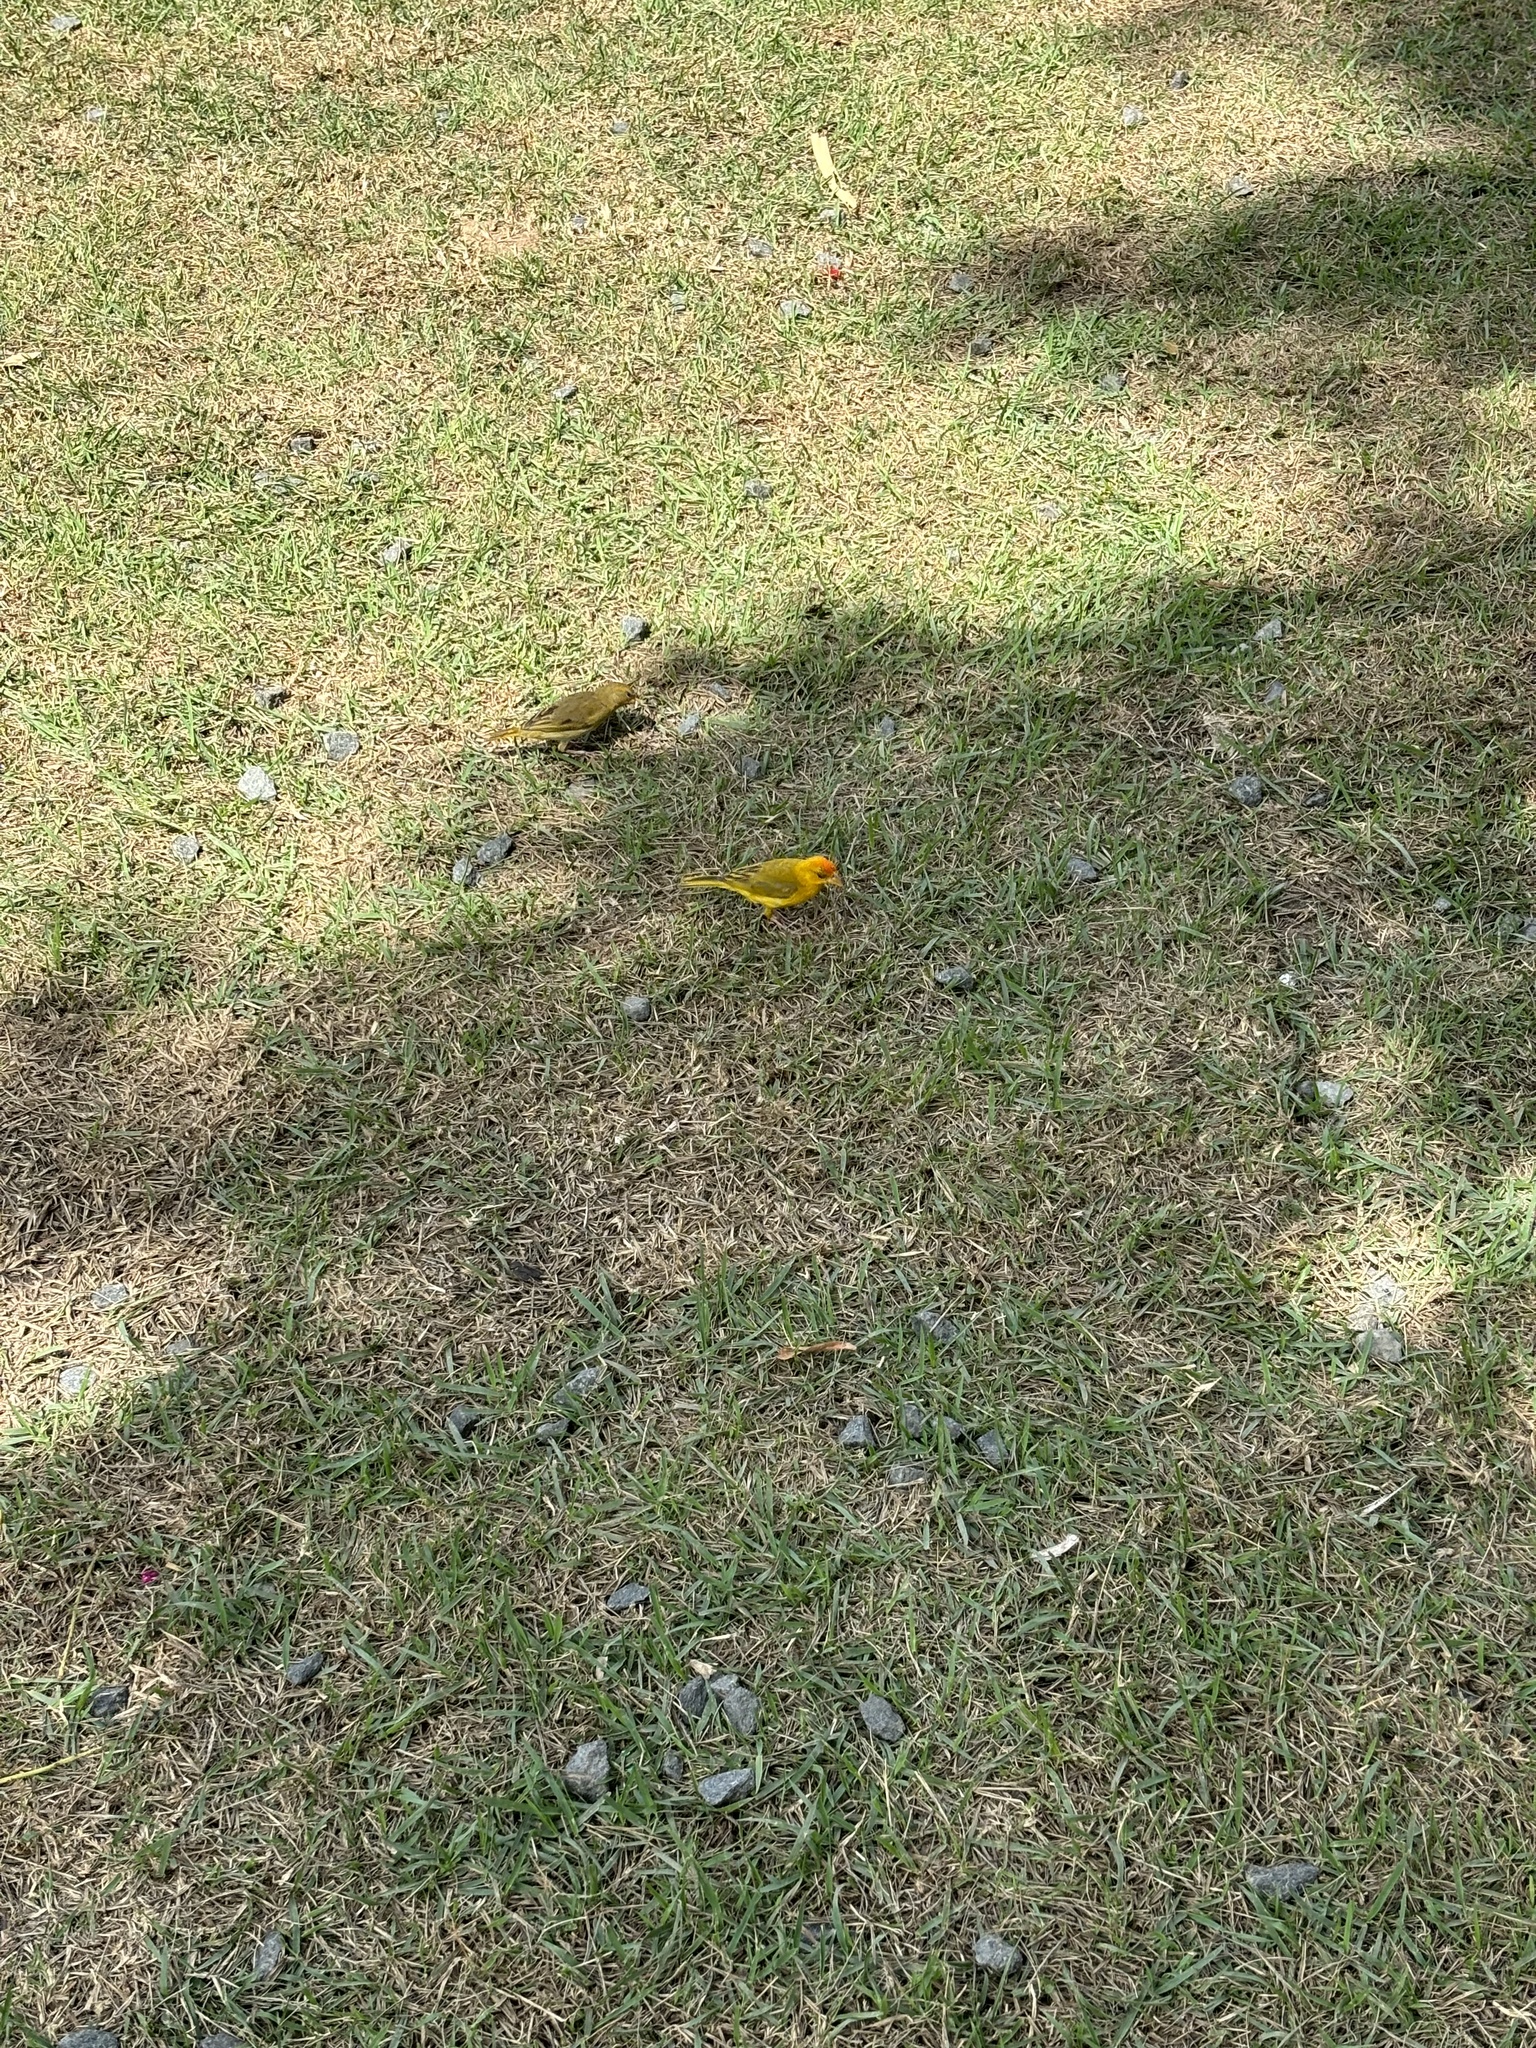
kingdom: Animalia
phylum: Chordata
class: Aves
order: Passeriformes
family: Thraupidae
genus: Sicalis
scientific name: Sicalis columbiana
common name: Orange-fronted yellow-finch
